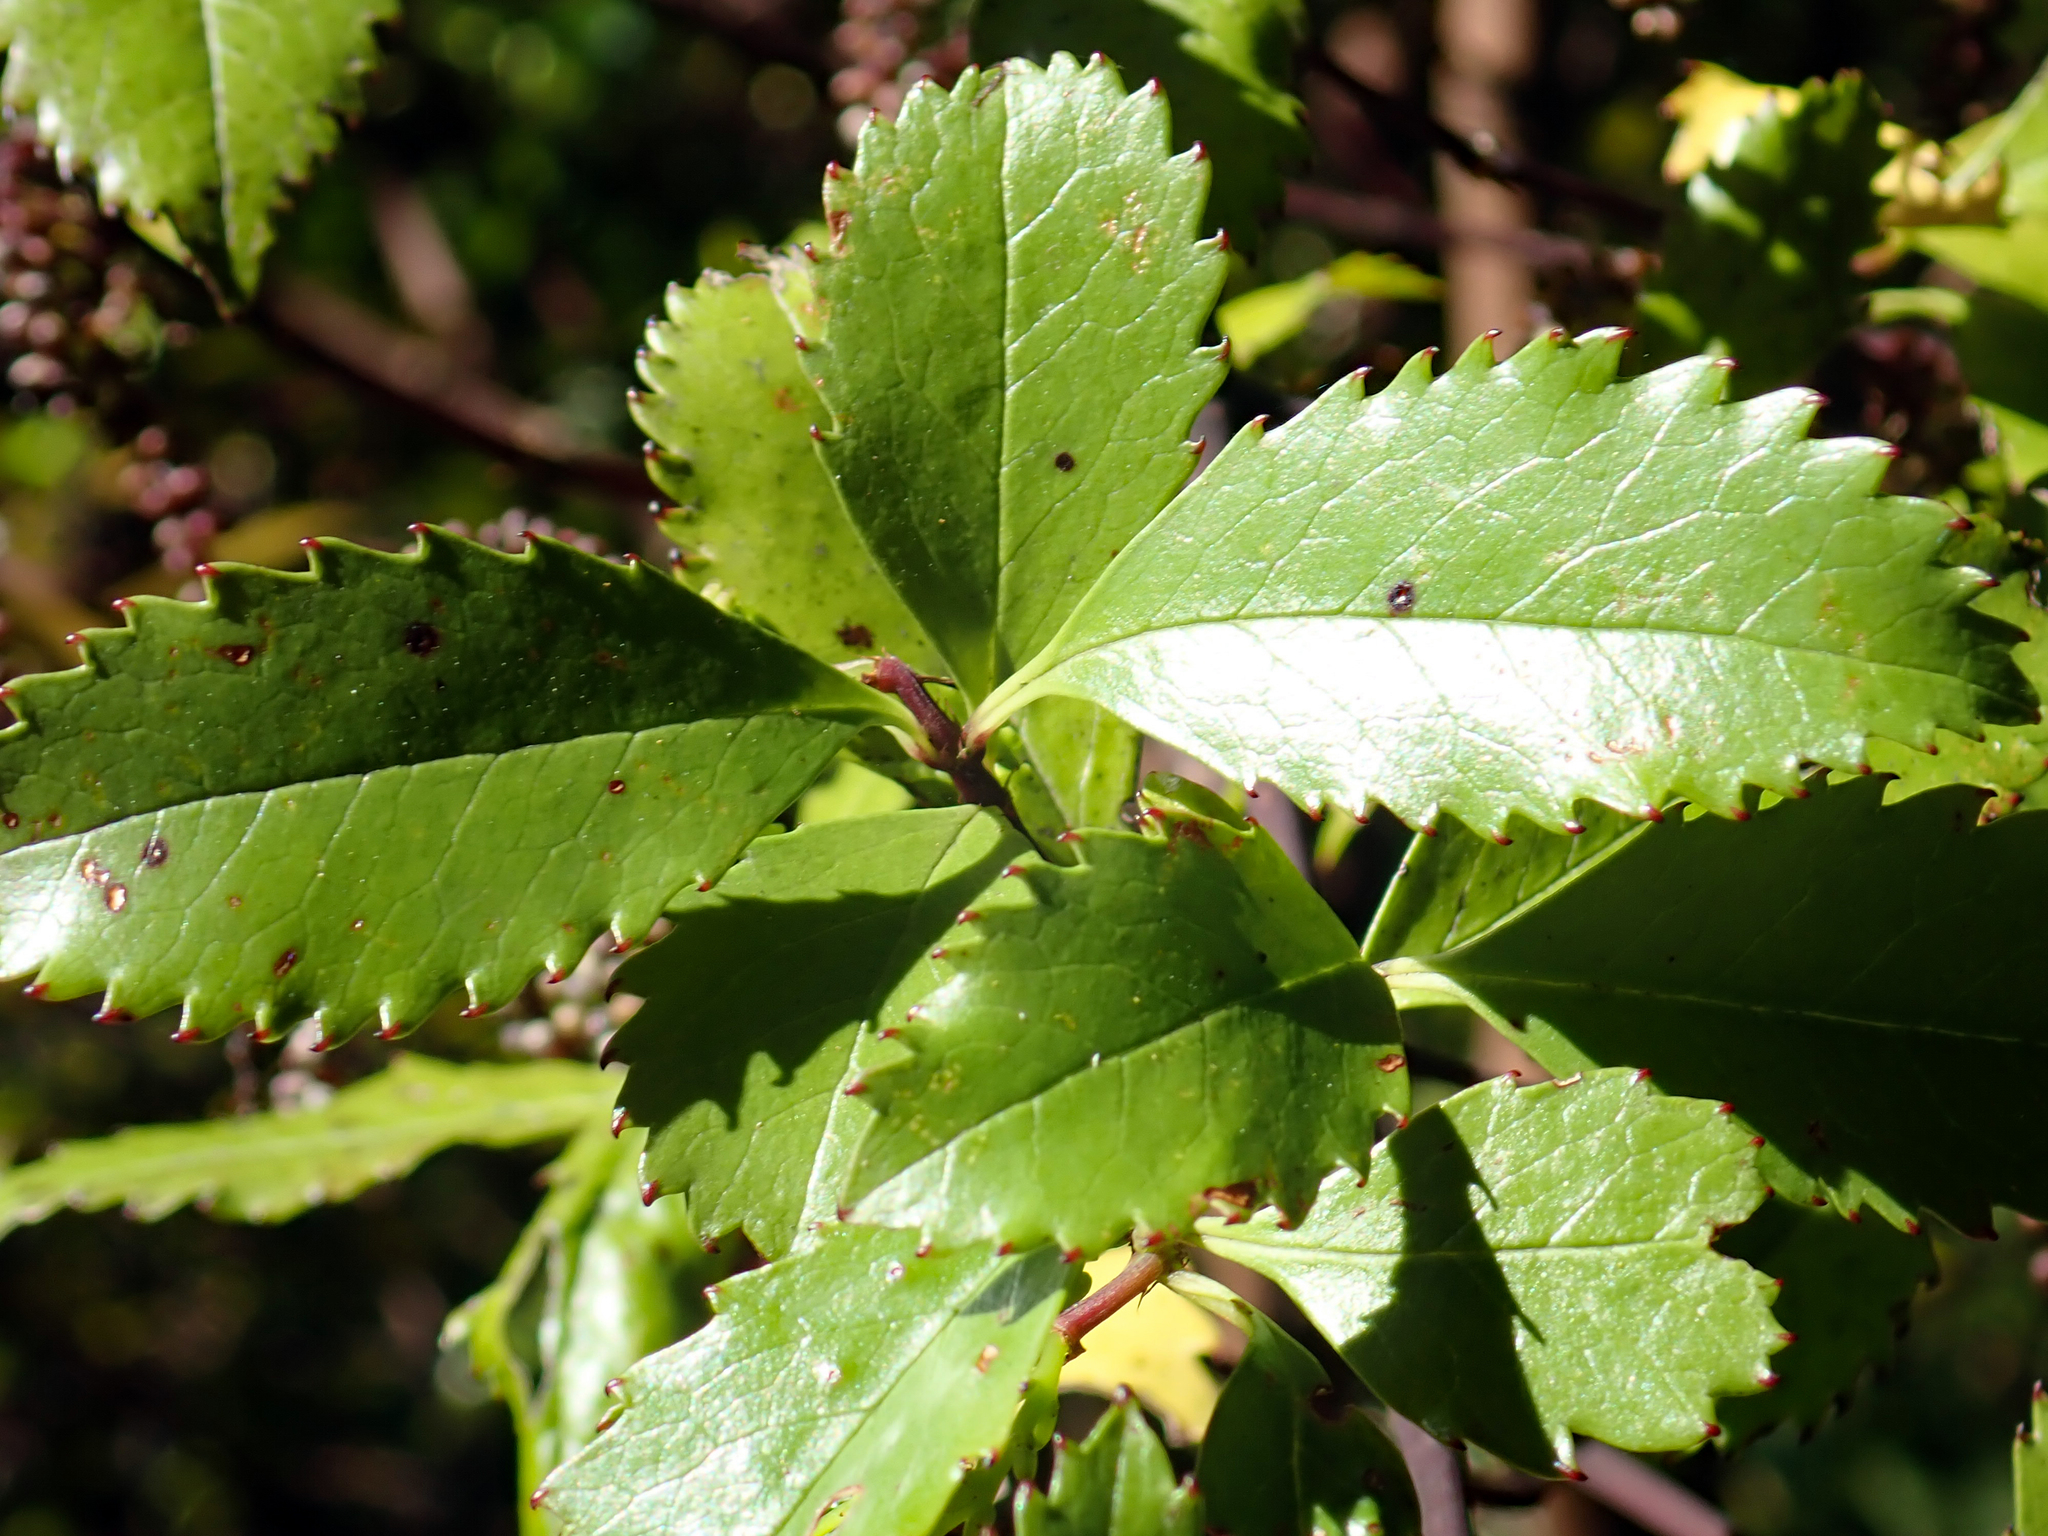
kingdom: Plantae
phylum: Tracheophyta
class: Magnoliopsida
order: Chloranthales
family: Chloranthaceae
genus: Ascarina
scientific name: Ascarina lucida
